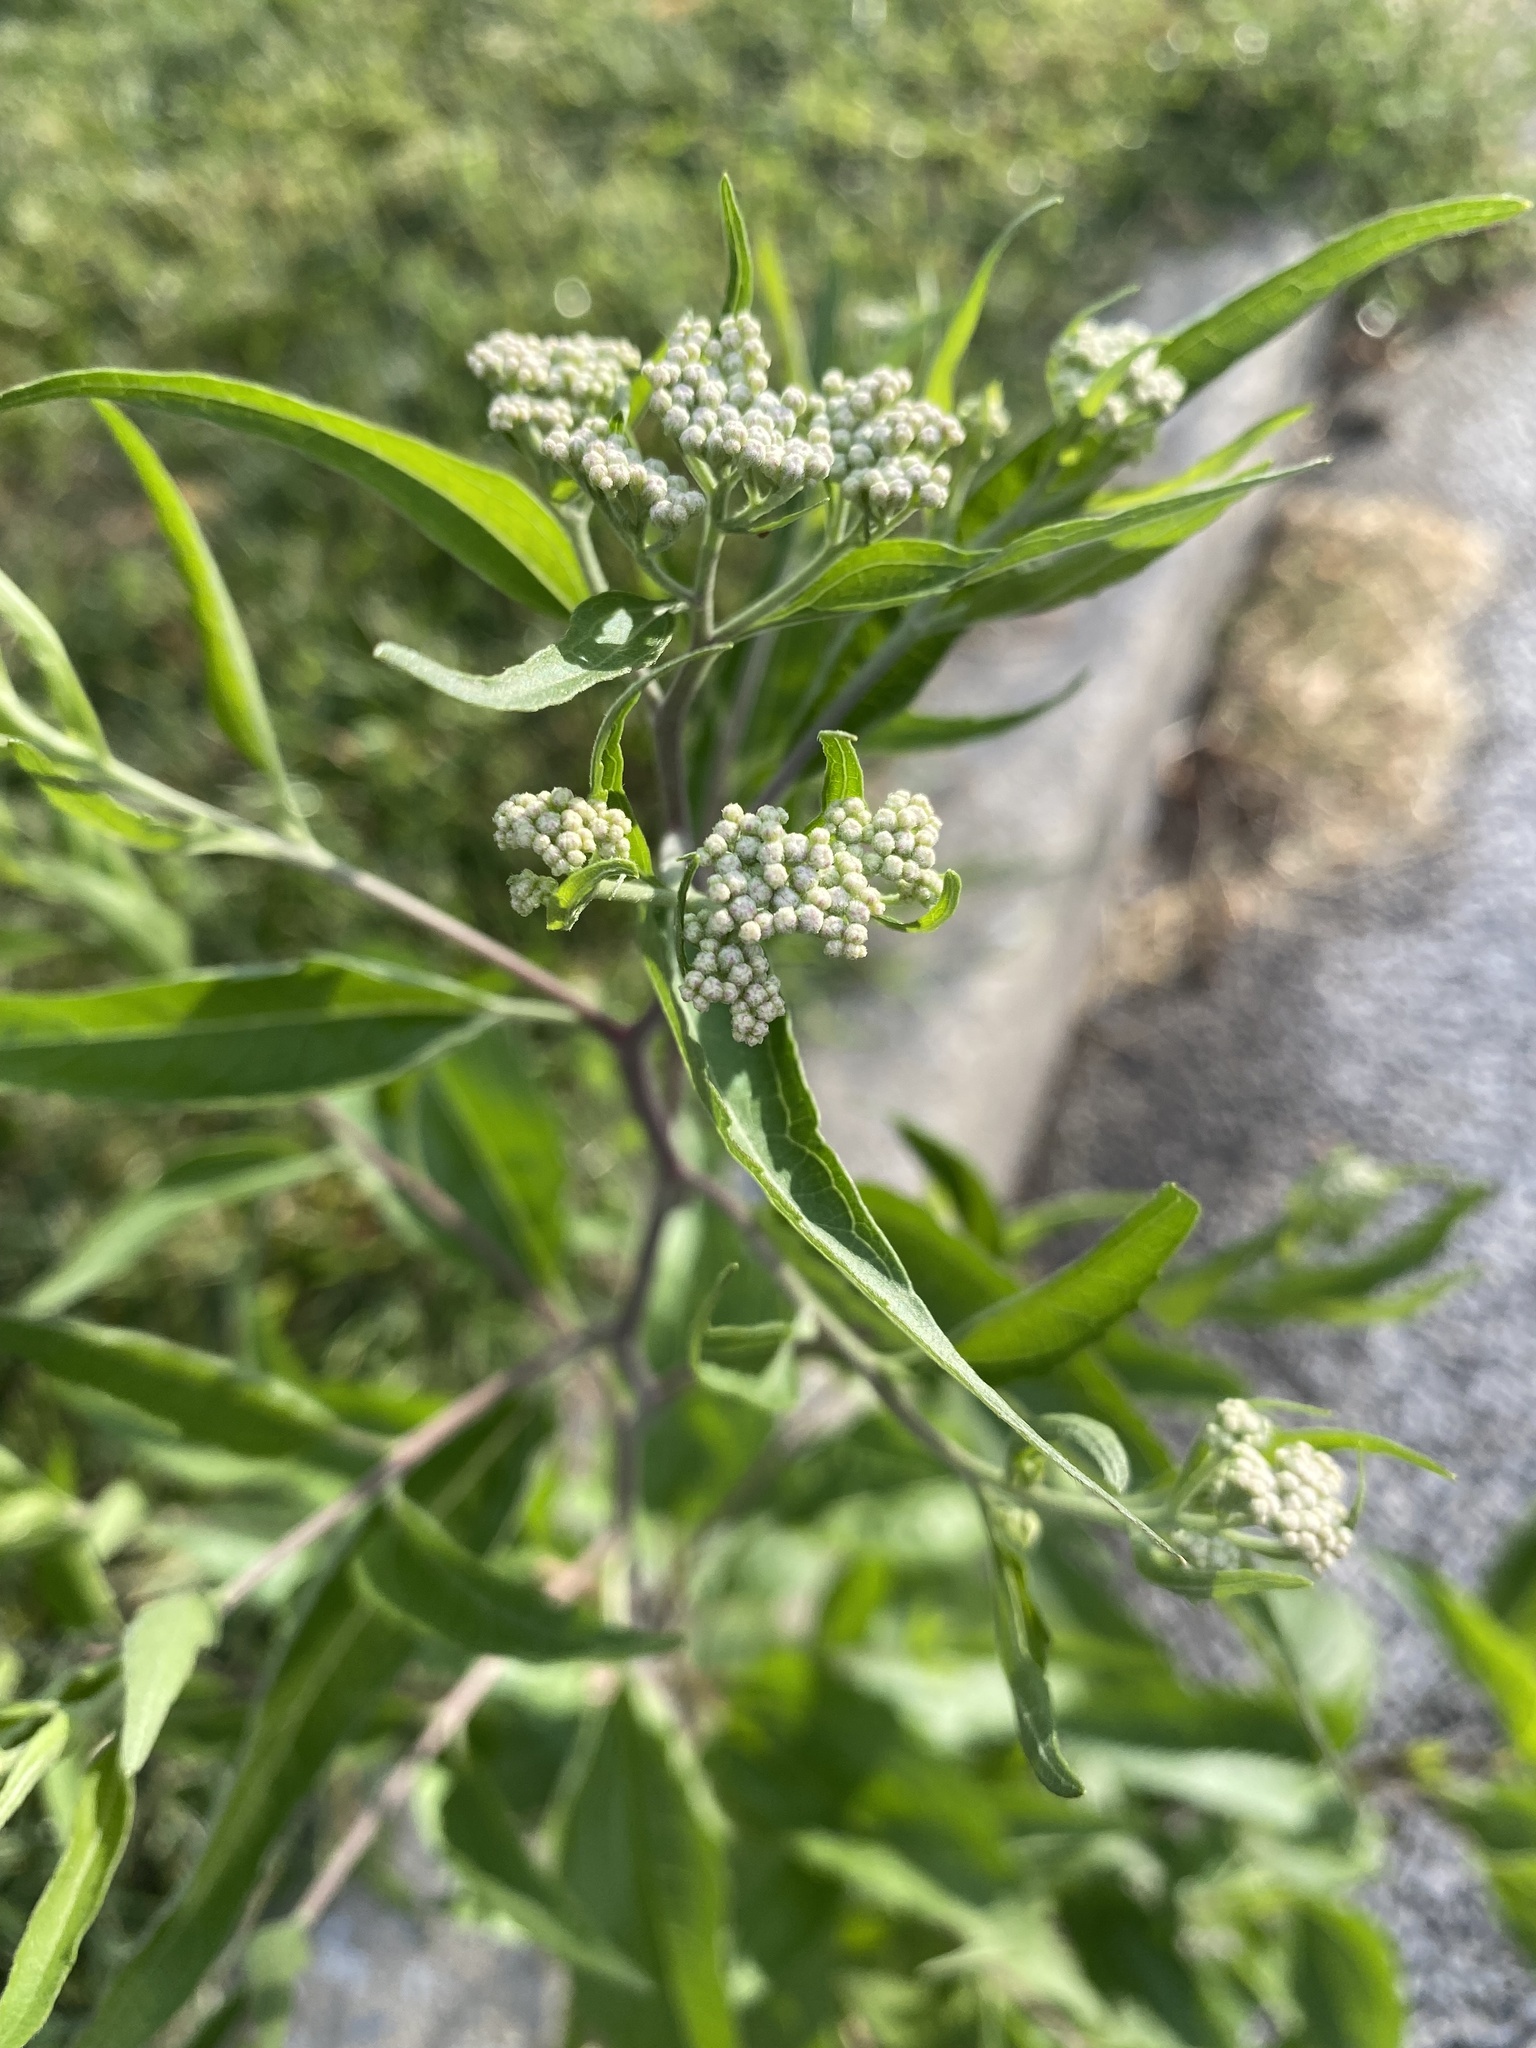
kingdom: Plantae
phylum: Tracheophyta
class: Magnoliopsida
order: Asterales
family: Asteraceae
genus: Eupatorium
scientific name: Eupatorium serotinum
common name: Late boneset
